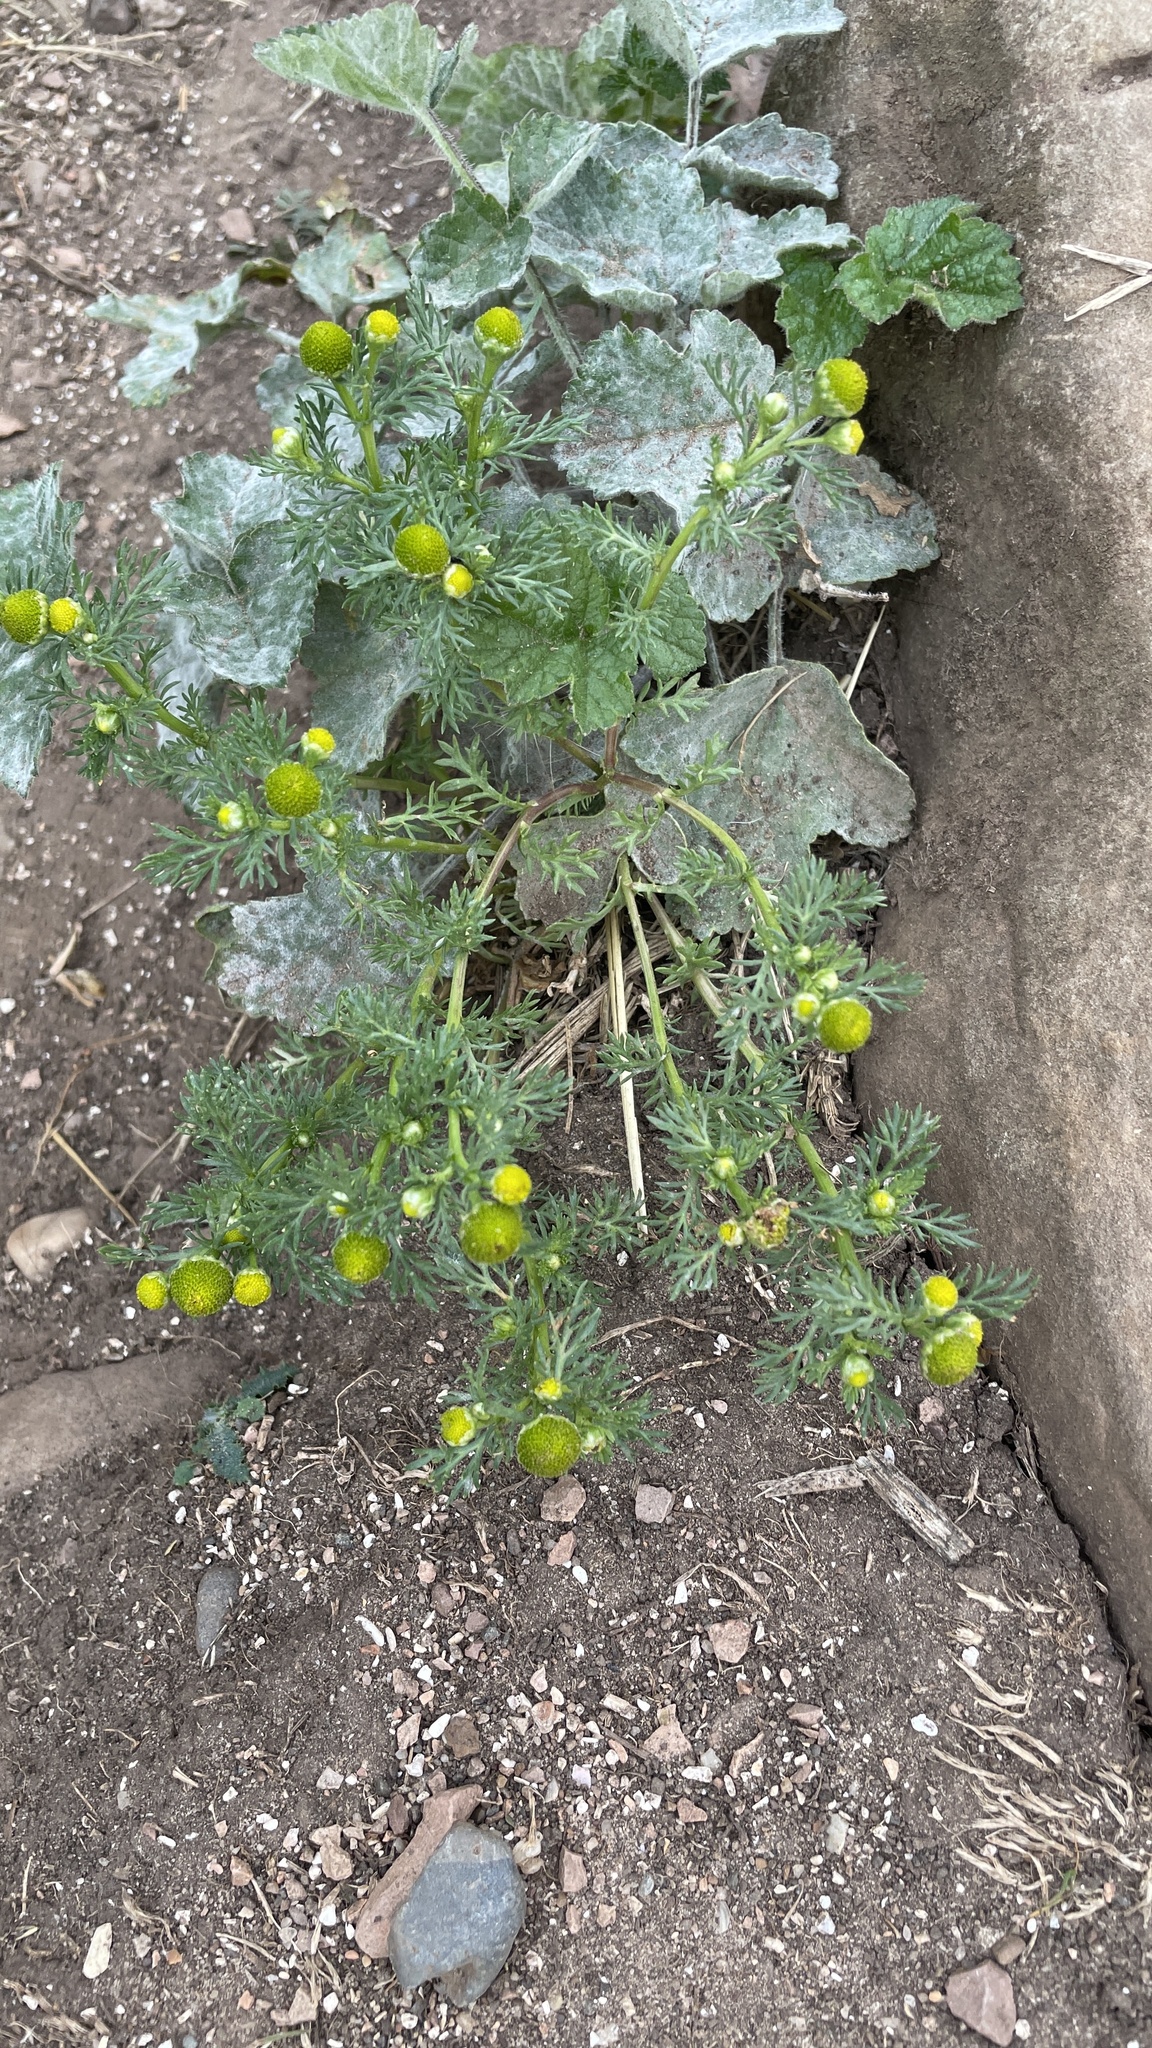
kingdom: Plantae
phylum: Tracheophyta
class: Magnoliopsida
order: Asterales
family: Asteraceae
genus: Matricaria
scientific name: Matricaria discoidea
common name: Disc mayweed
